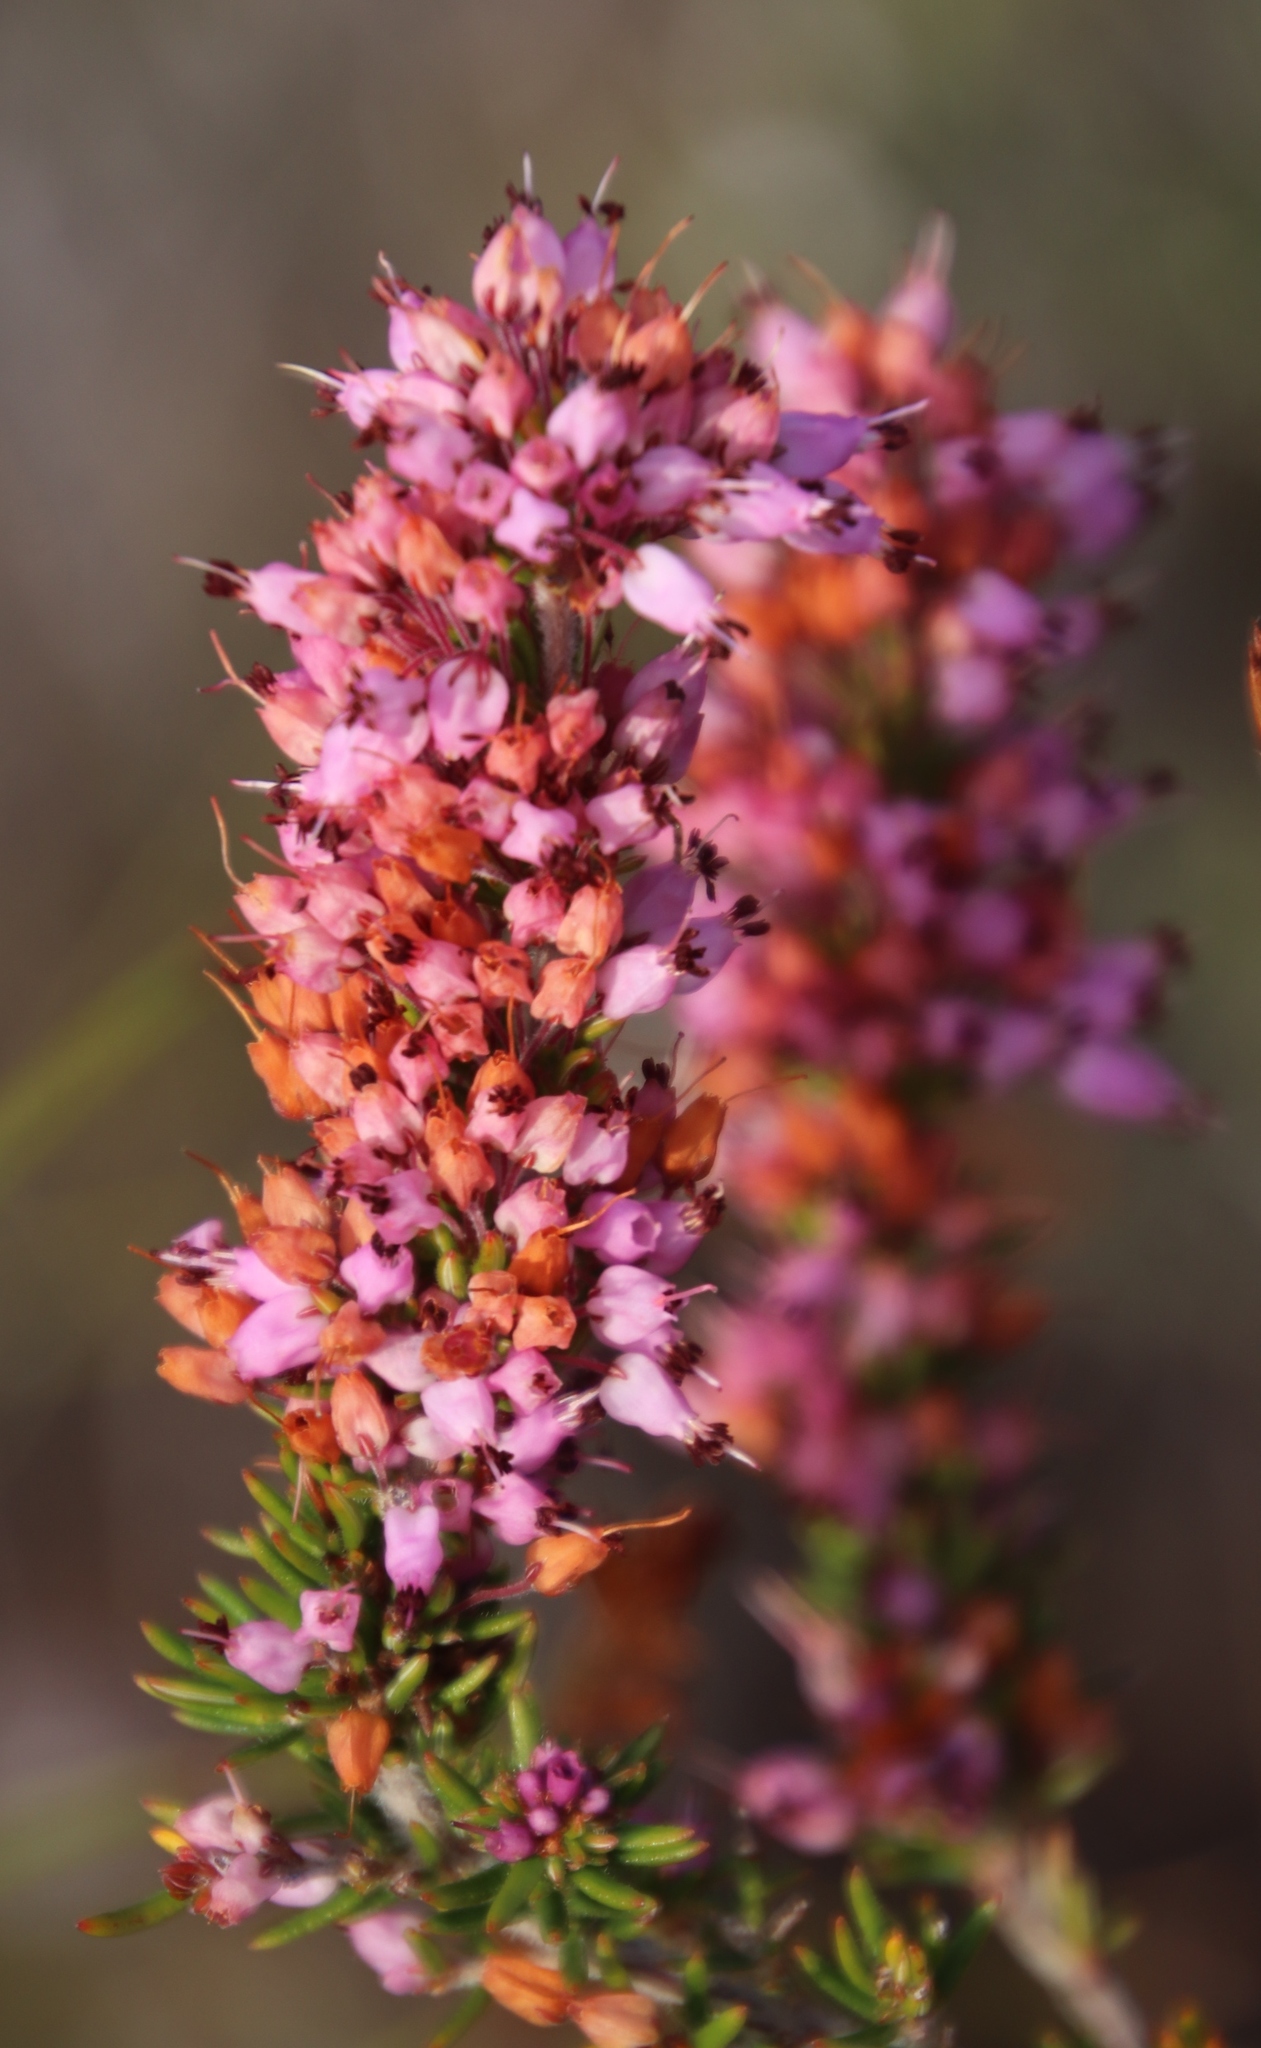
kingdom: Plantae
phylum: Tracheophyta
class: Magnoliopsida
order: Ericales
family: Ericaceae
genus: Erica
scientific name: Erica nudiflora
